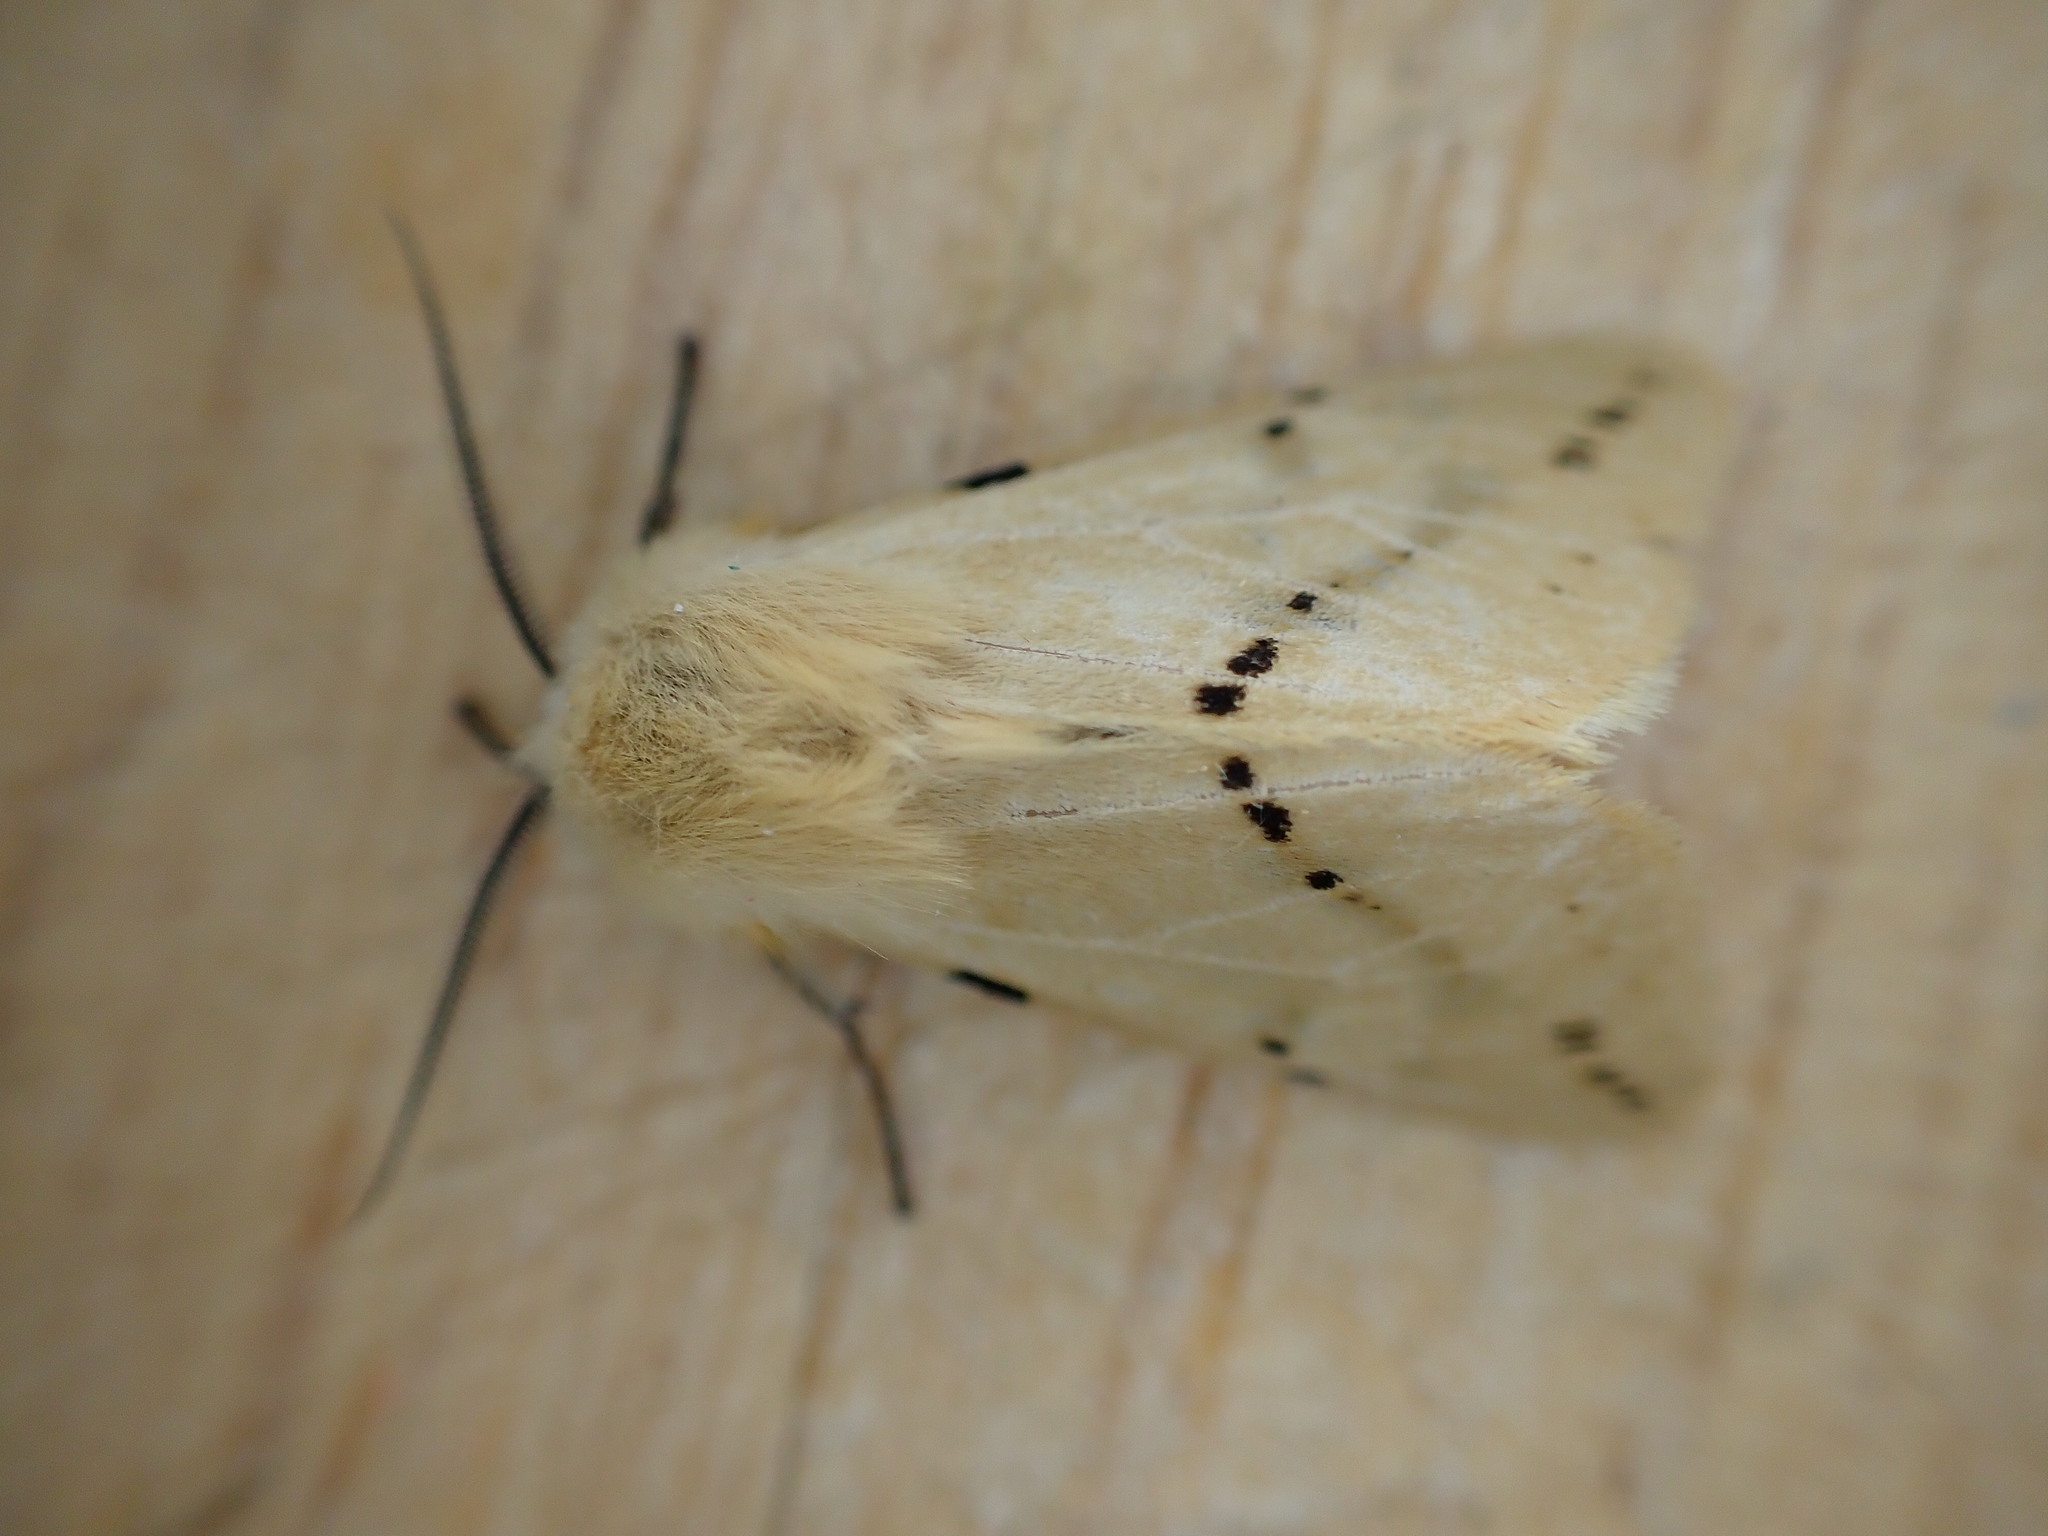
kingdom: Animalia
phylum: Arthropoda
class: Insecta
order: Lepidoptera
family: Erebidae
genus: Spilarctia
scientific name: Spilarctia lutea
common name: Buff ermine
